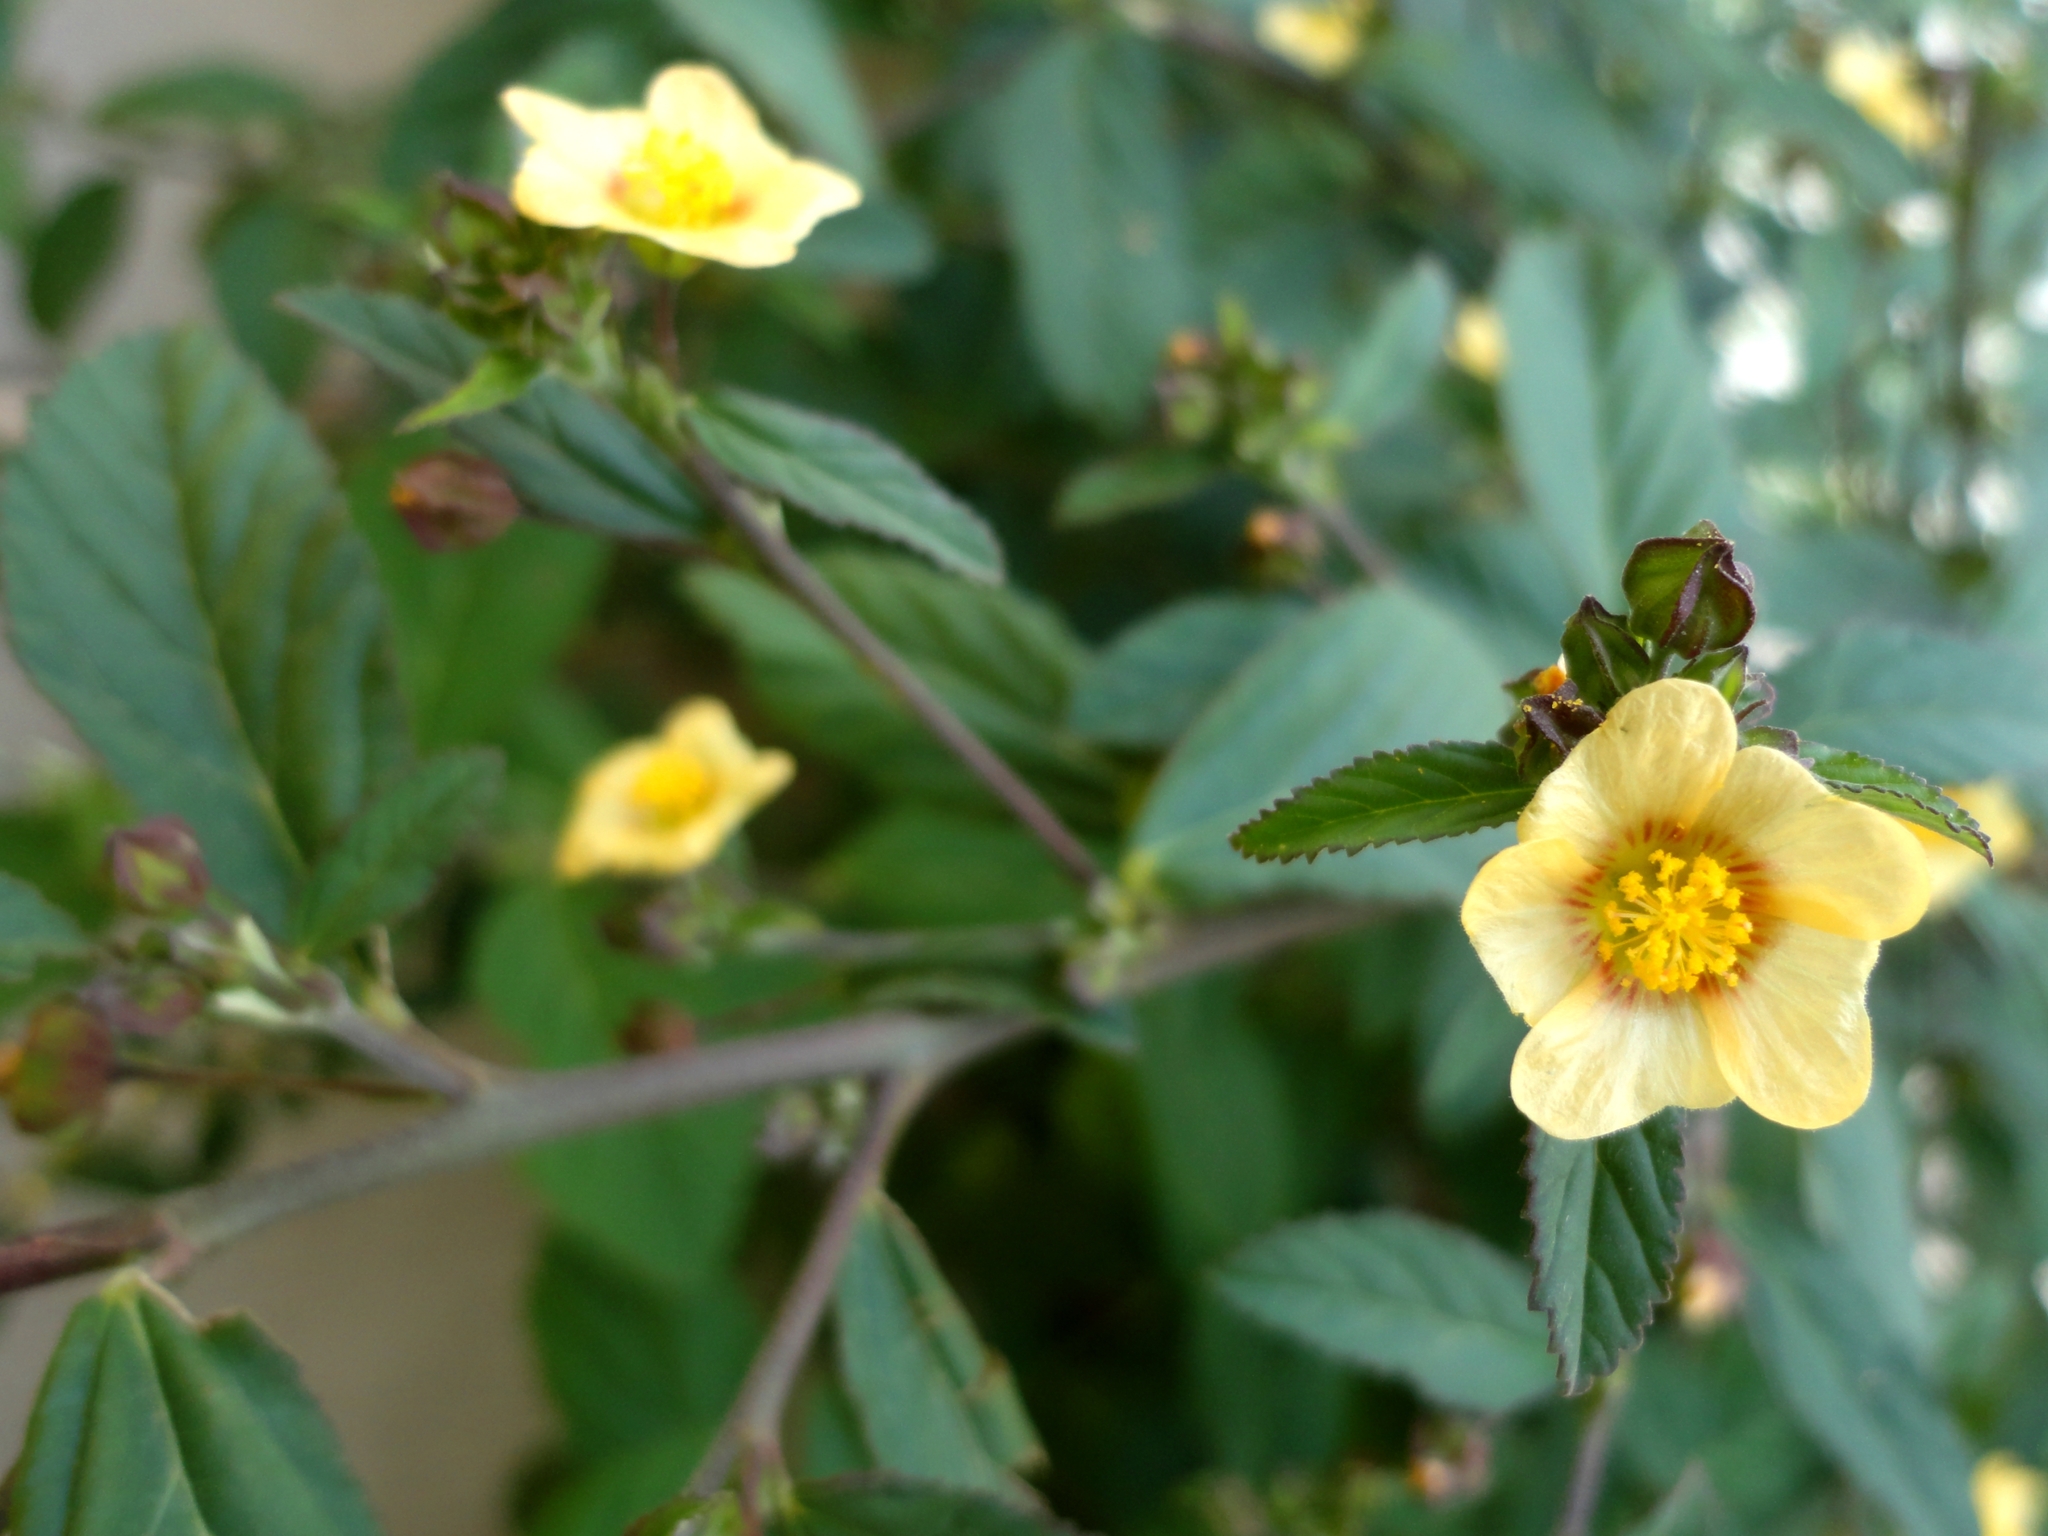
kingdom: Plantae
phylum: Tracheophyta
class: Magnoliopsida
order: Malvales
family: Malvaceae
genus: Sida
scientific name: Sida rhombifolia
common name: Queensland-hemp
